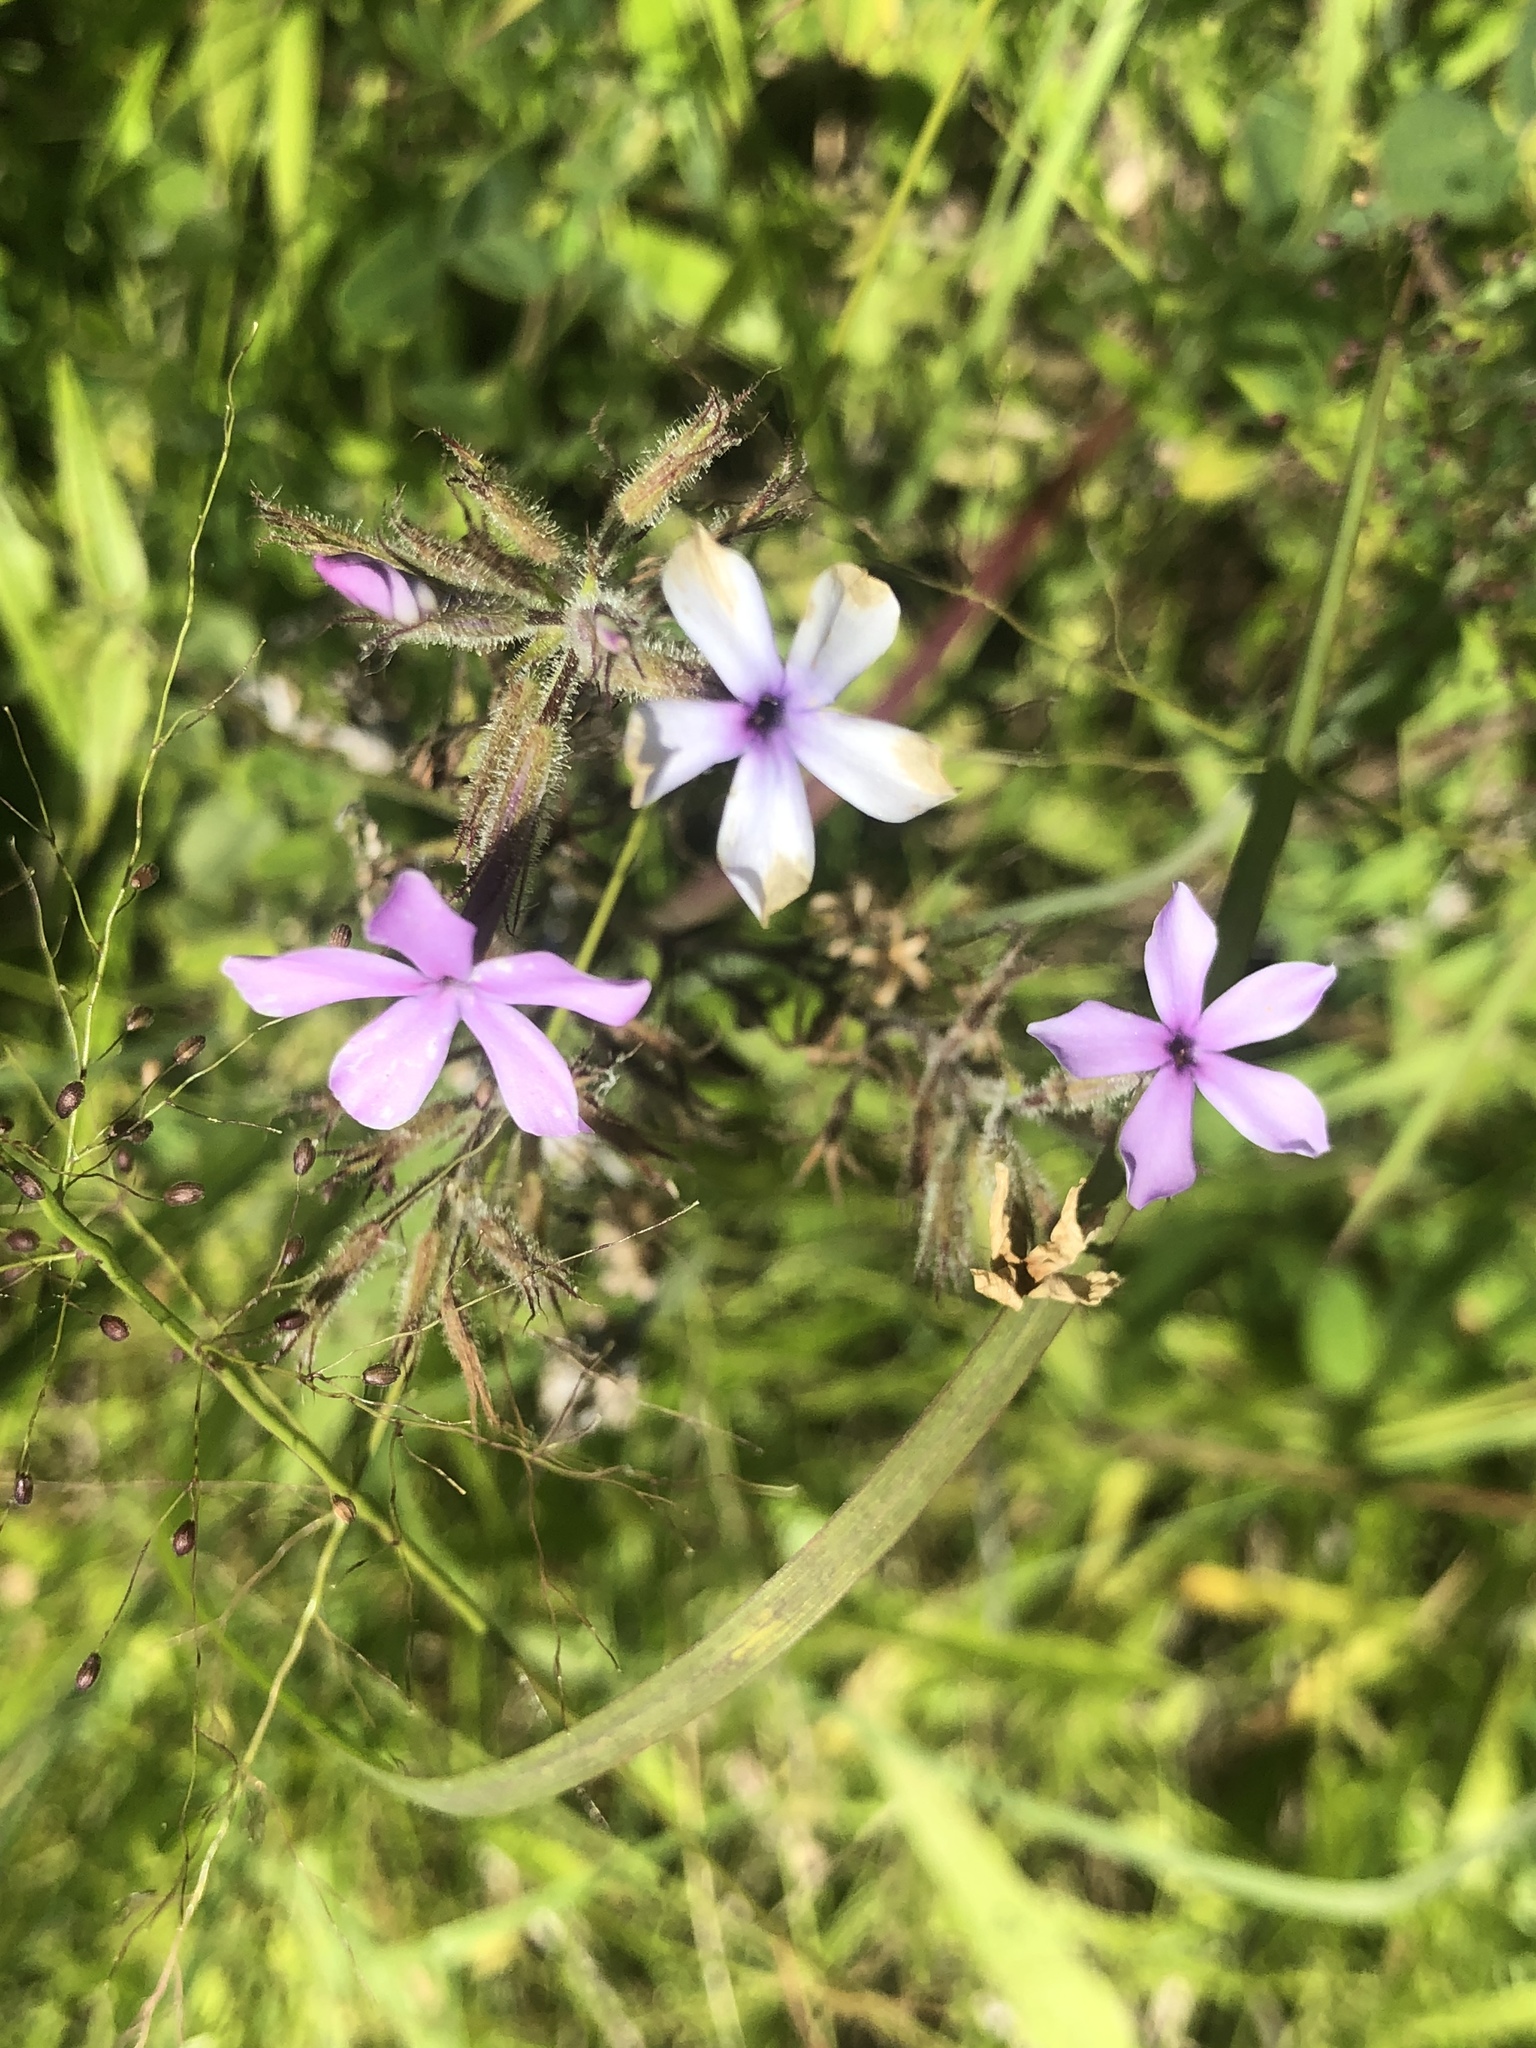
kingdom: Plantae
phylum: Tracheophyta
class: Magnoliopsida
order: Ericales
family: Polemoniaceae
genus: Phlox
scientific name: Phlox pilosa
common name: Prairie phlox
